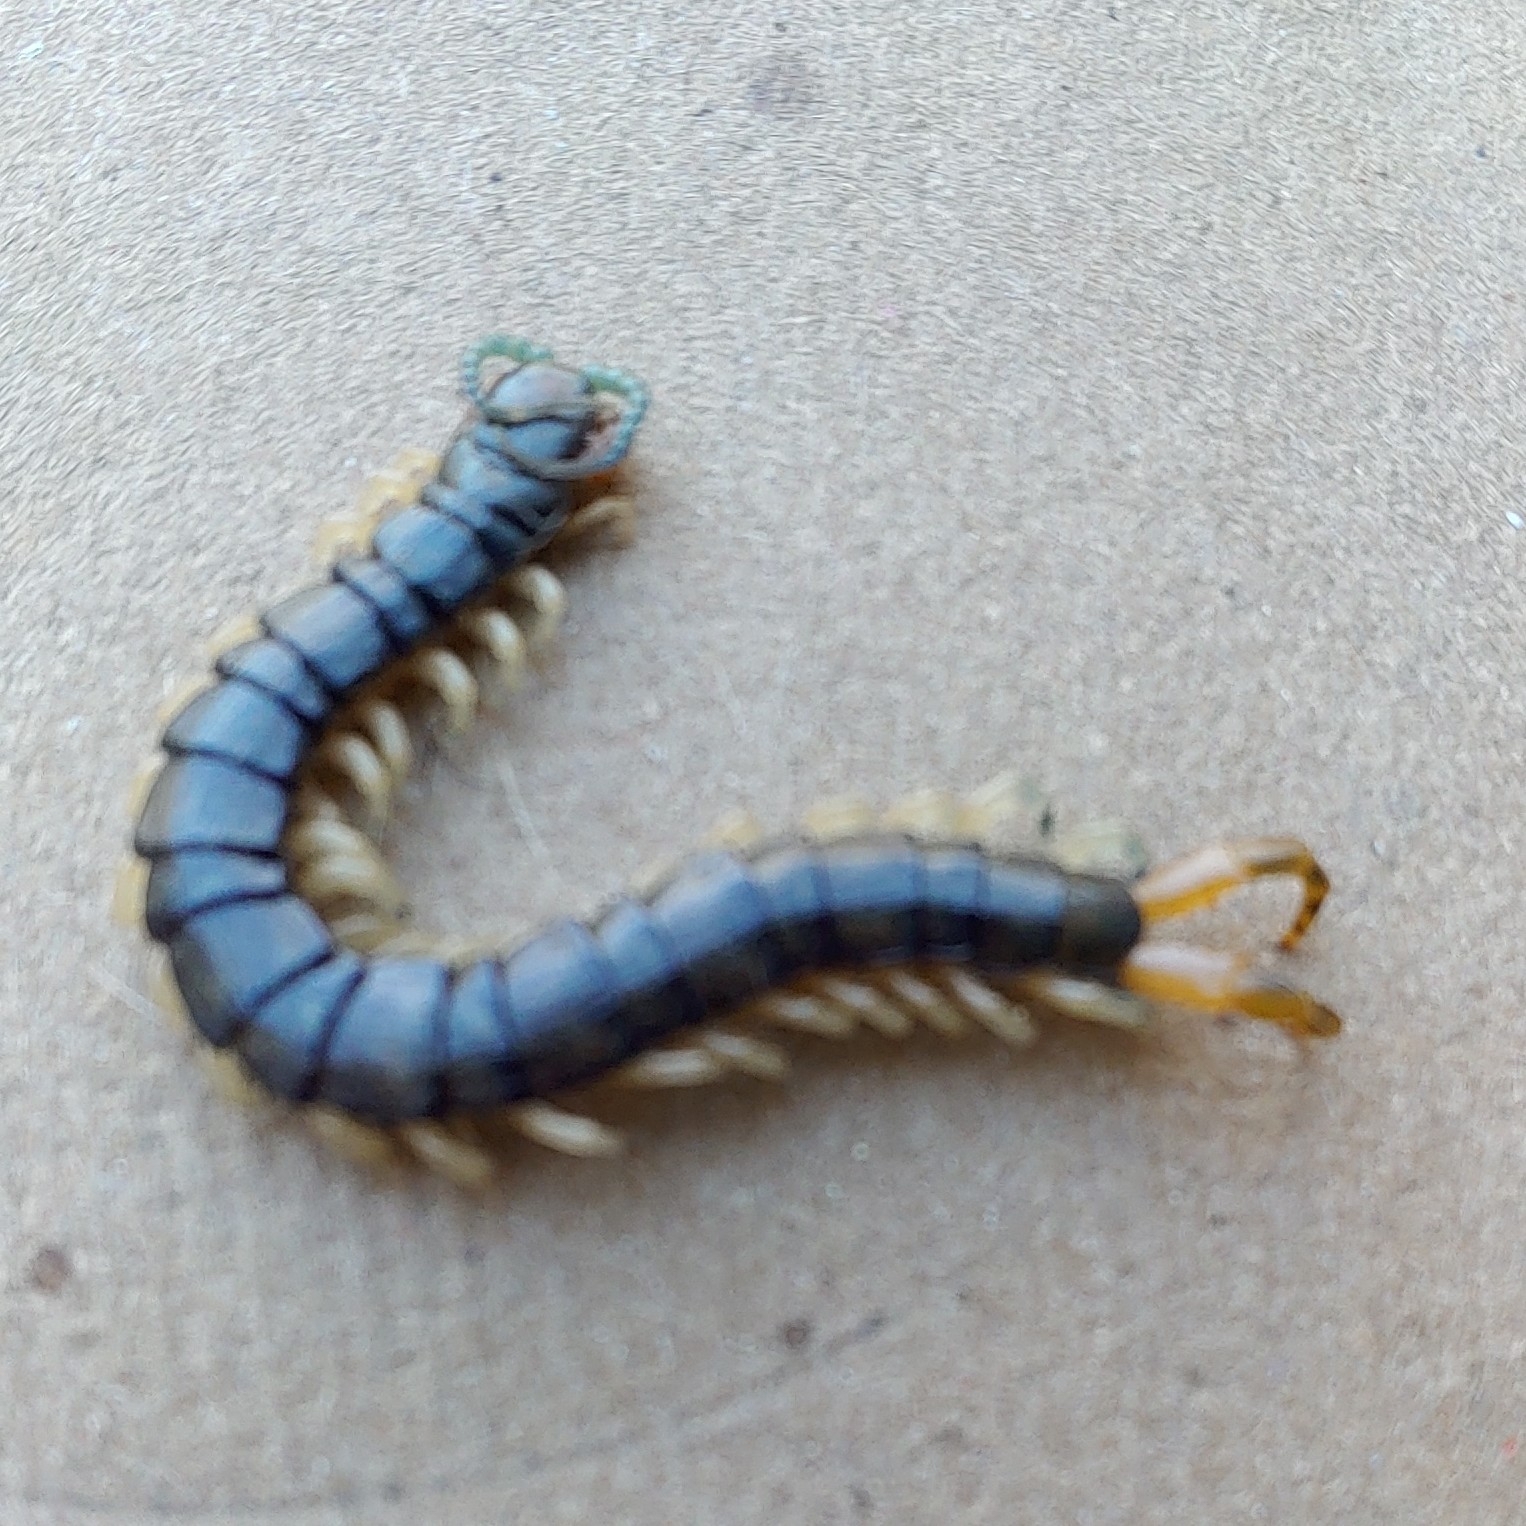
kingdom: Animalia
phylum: Arthropoda
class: Chilopoda
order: Scolopendromorpha
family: Scolopendridae
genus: Hemiscolopendra
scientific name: Hemiscolopendra marginata
